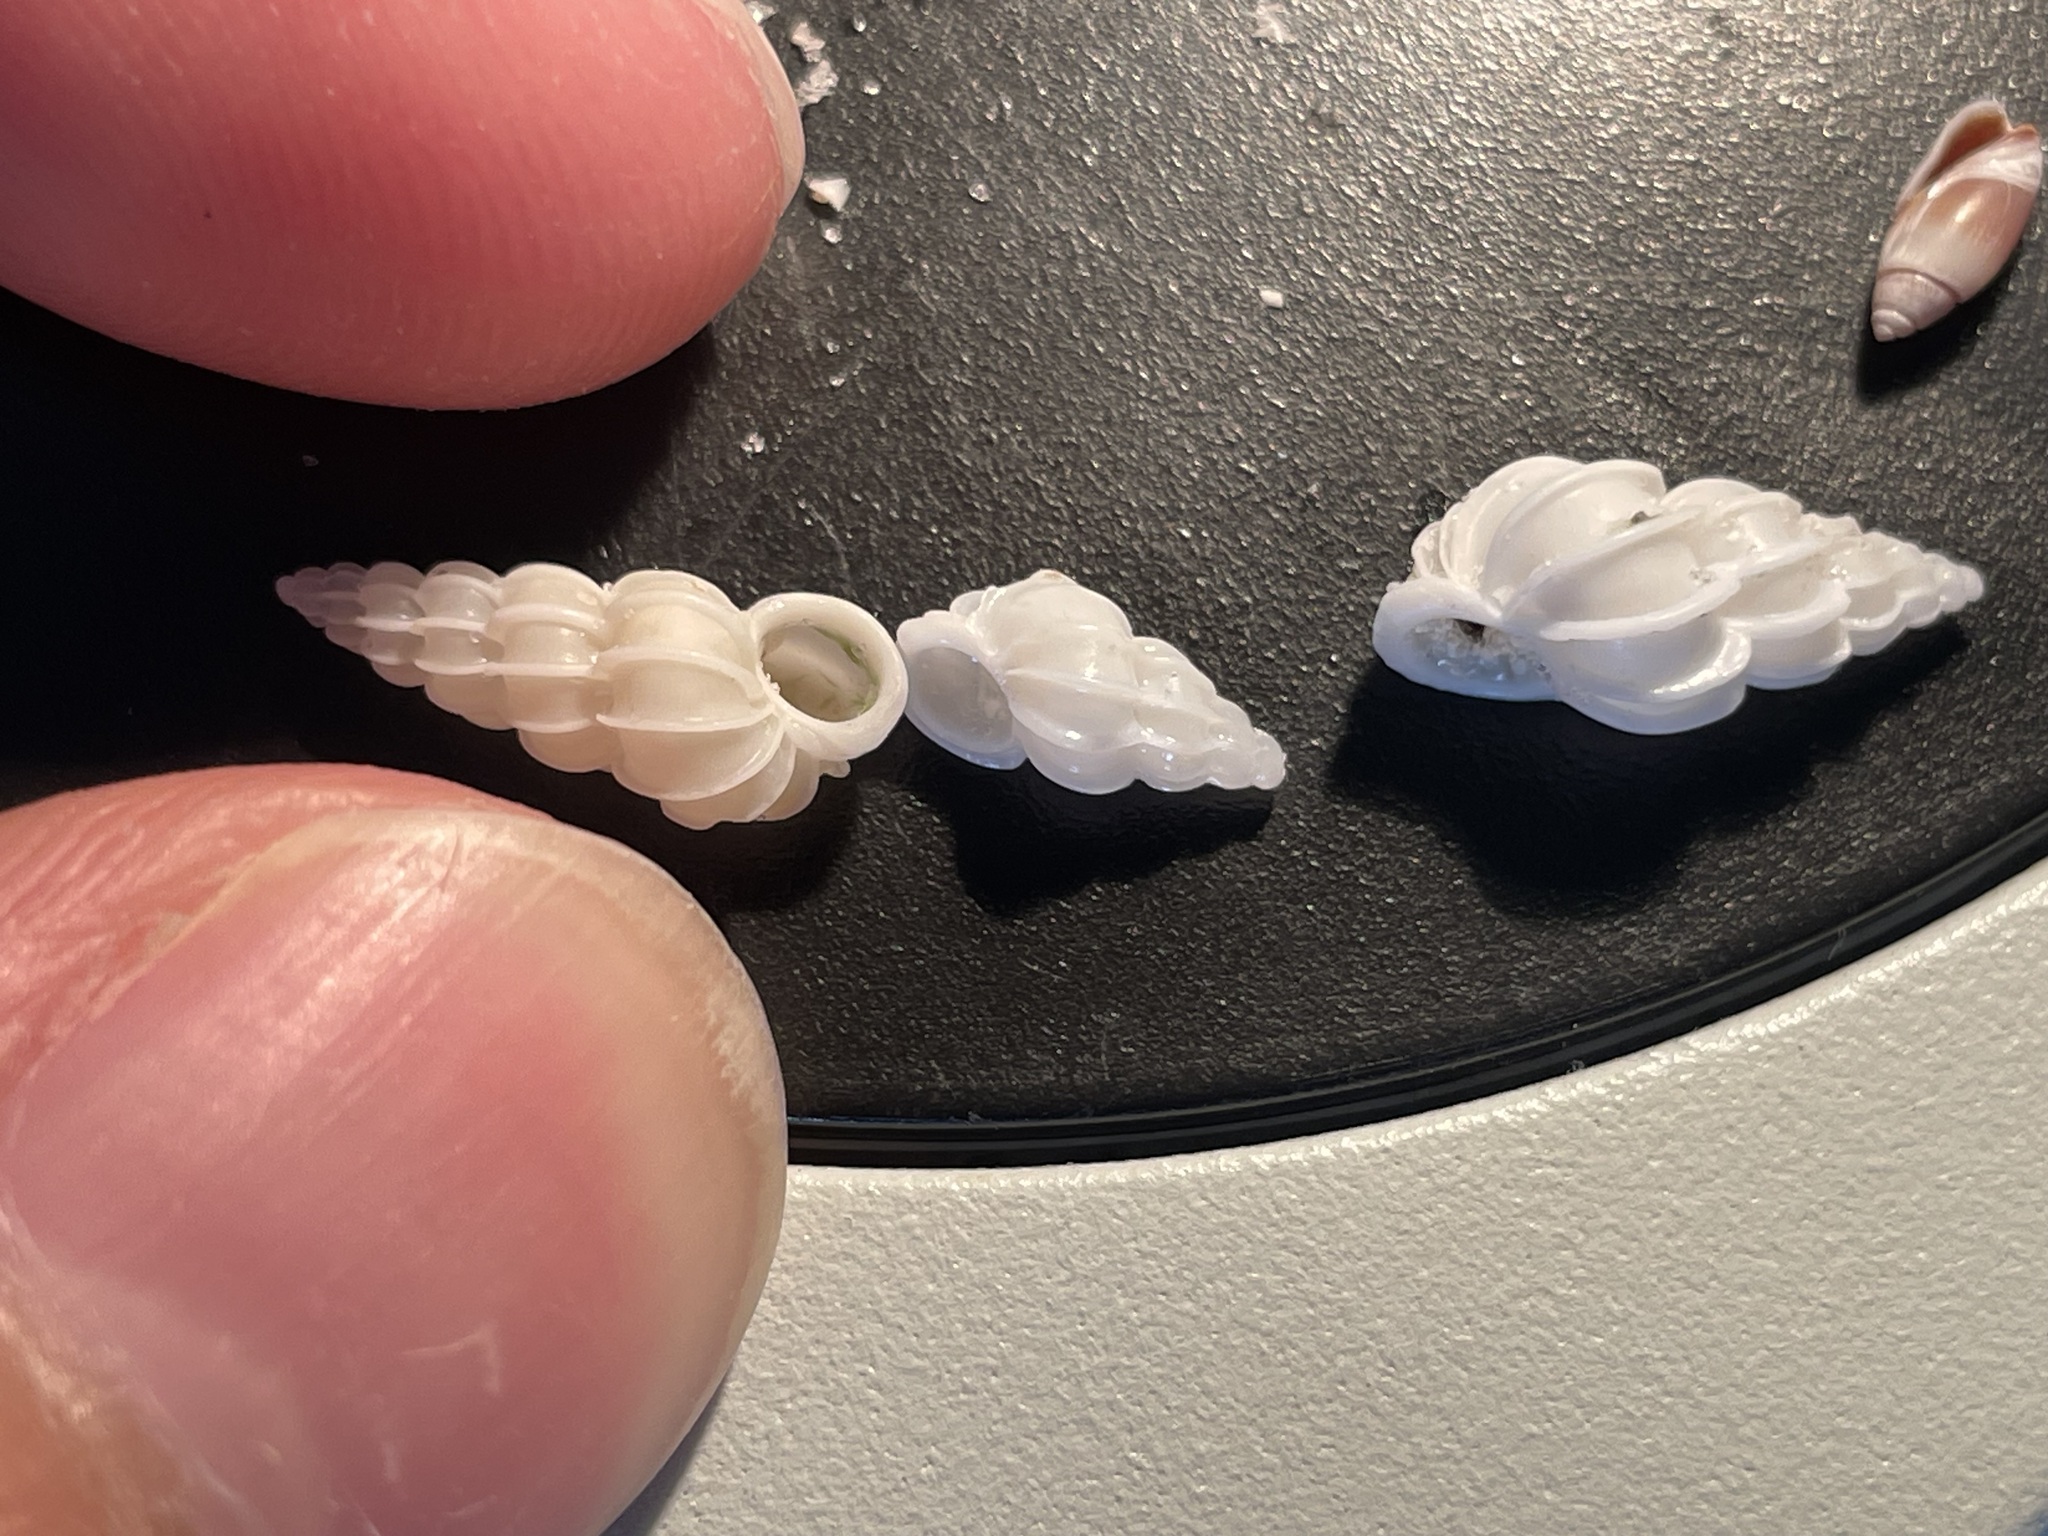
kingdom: Animalia
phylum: Mollusca
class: Gastropoda
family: Epitoniidae
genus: Epitonium
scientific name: Epitonium angulatum
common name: Angulate wentletrap
